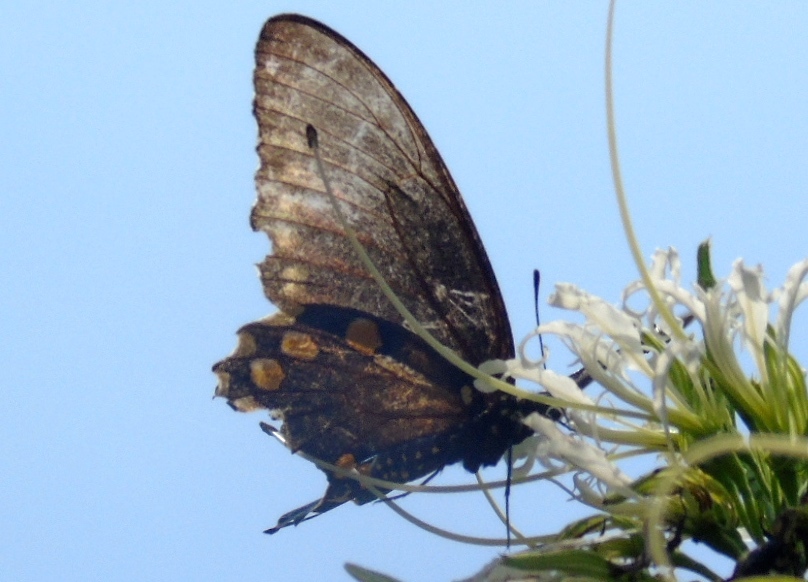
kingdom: Animalia
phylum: Arthropoda
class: Insecta
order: Lepidoptera
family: Papilionidae
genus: Battus
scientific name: Battus philenor
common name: Pipevine swallowtail
